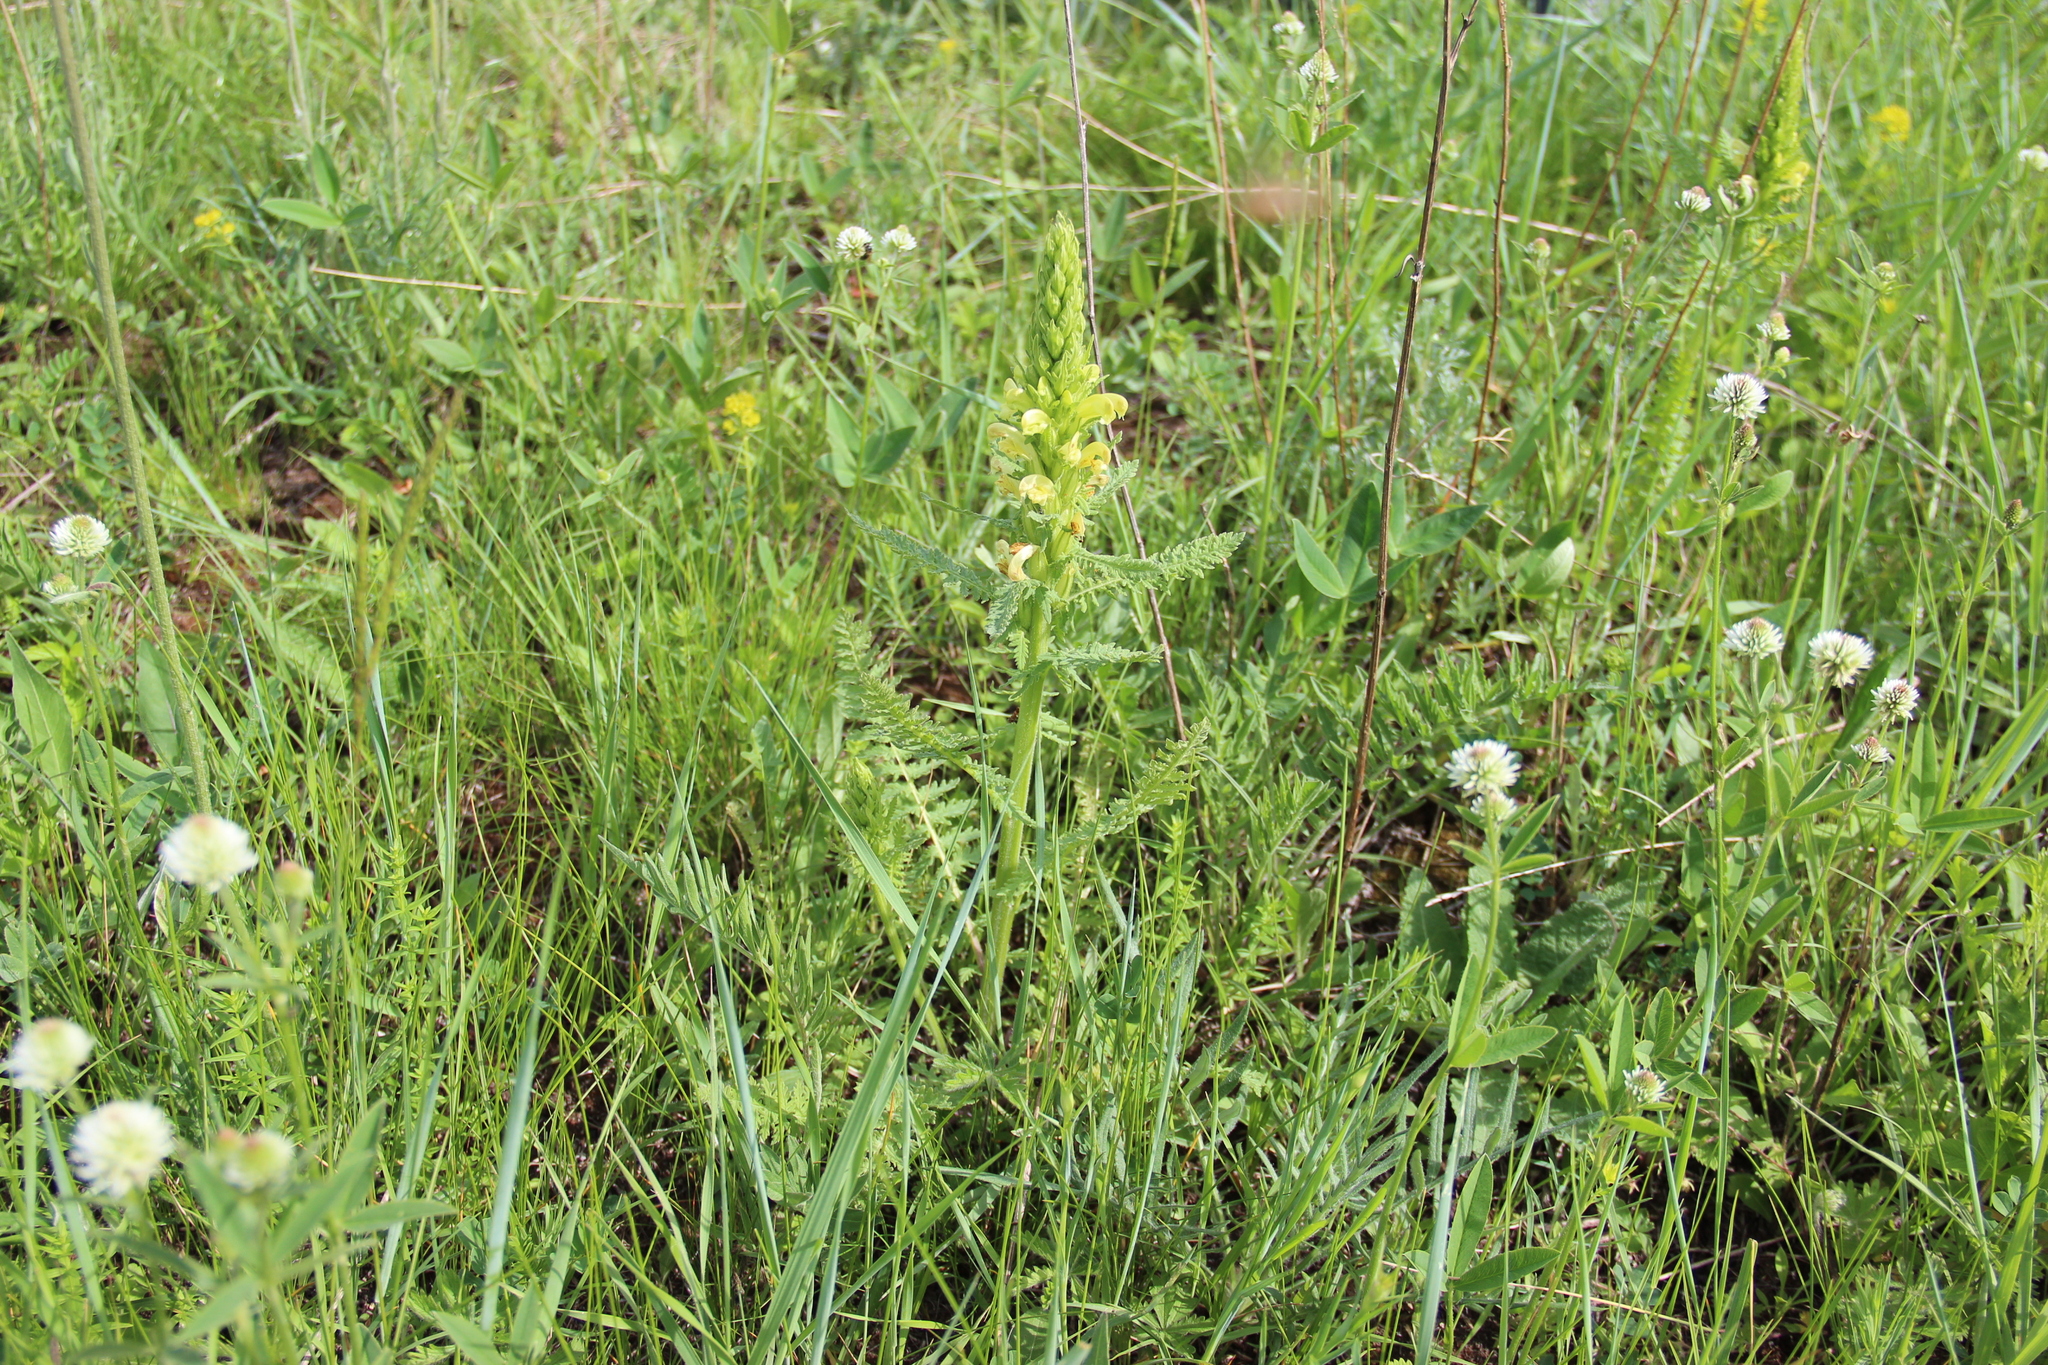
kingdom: Plantae
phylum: Tracheophyta
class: Magnoliopsida
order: Lamiales
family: Orobanchaceae
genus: Pedicularis
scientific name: Pedicularis kaufmannii
